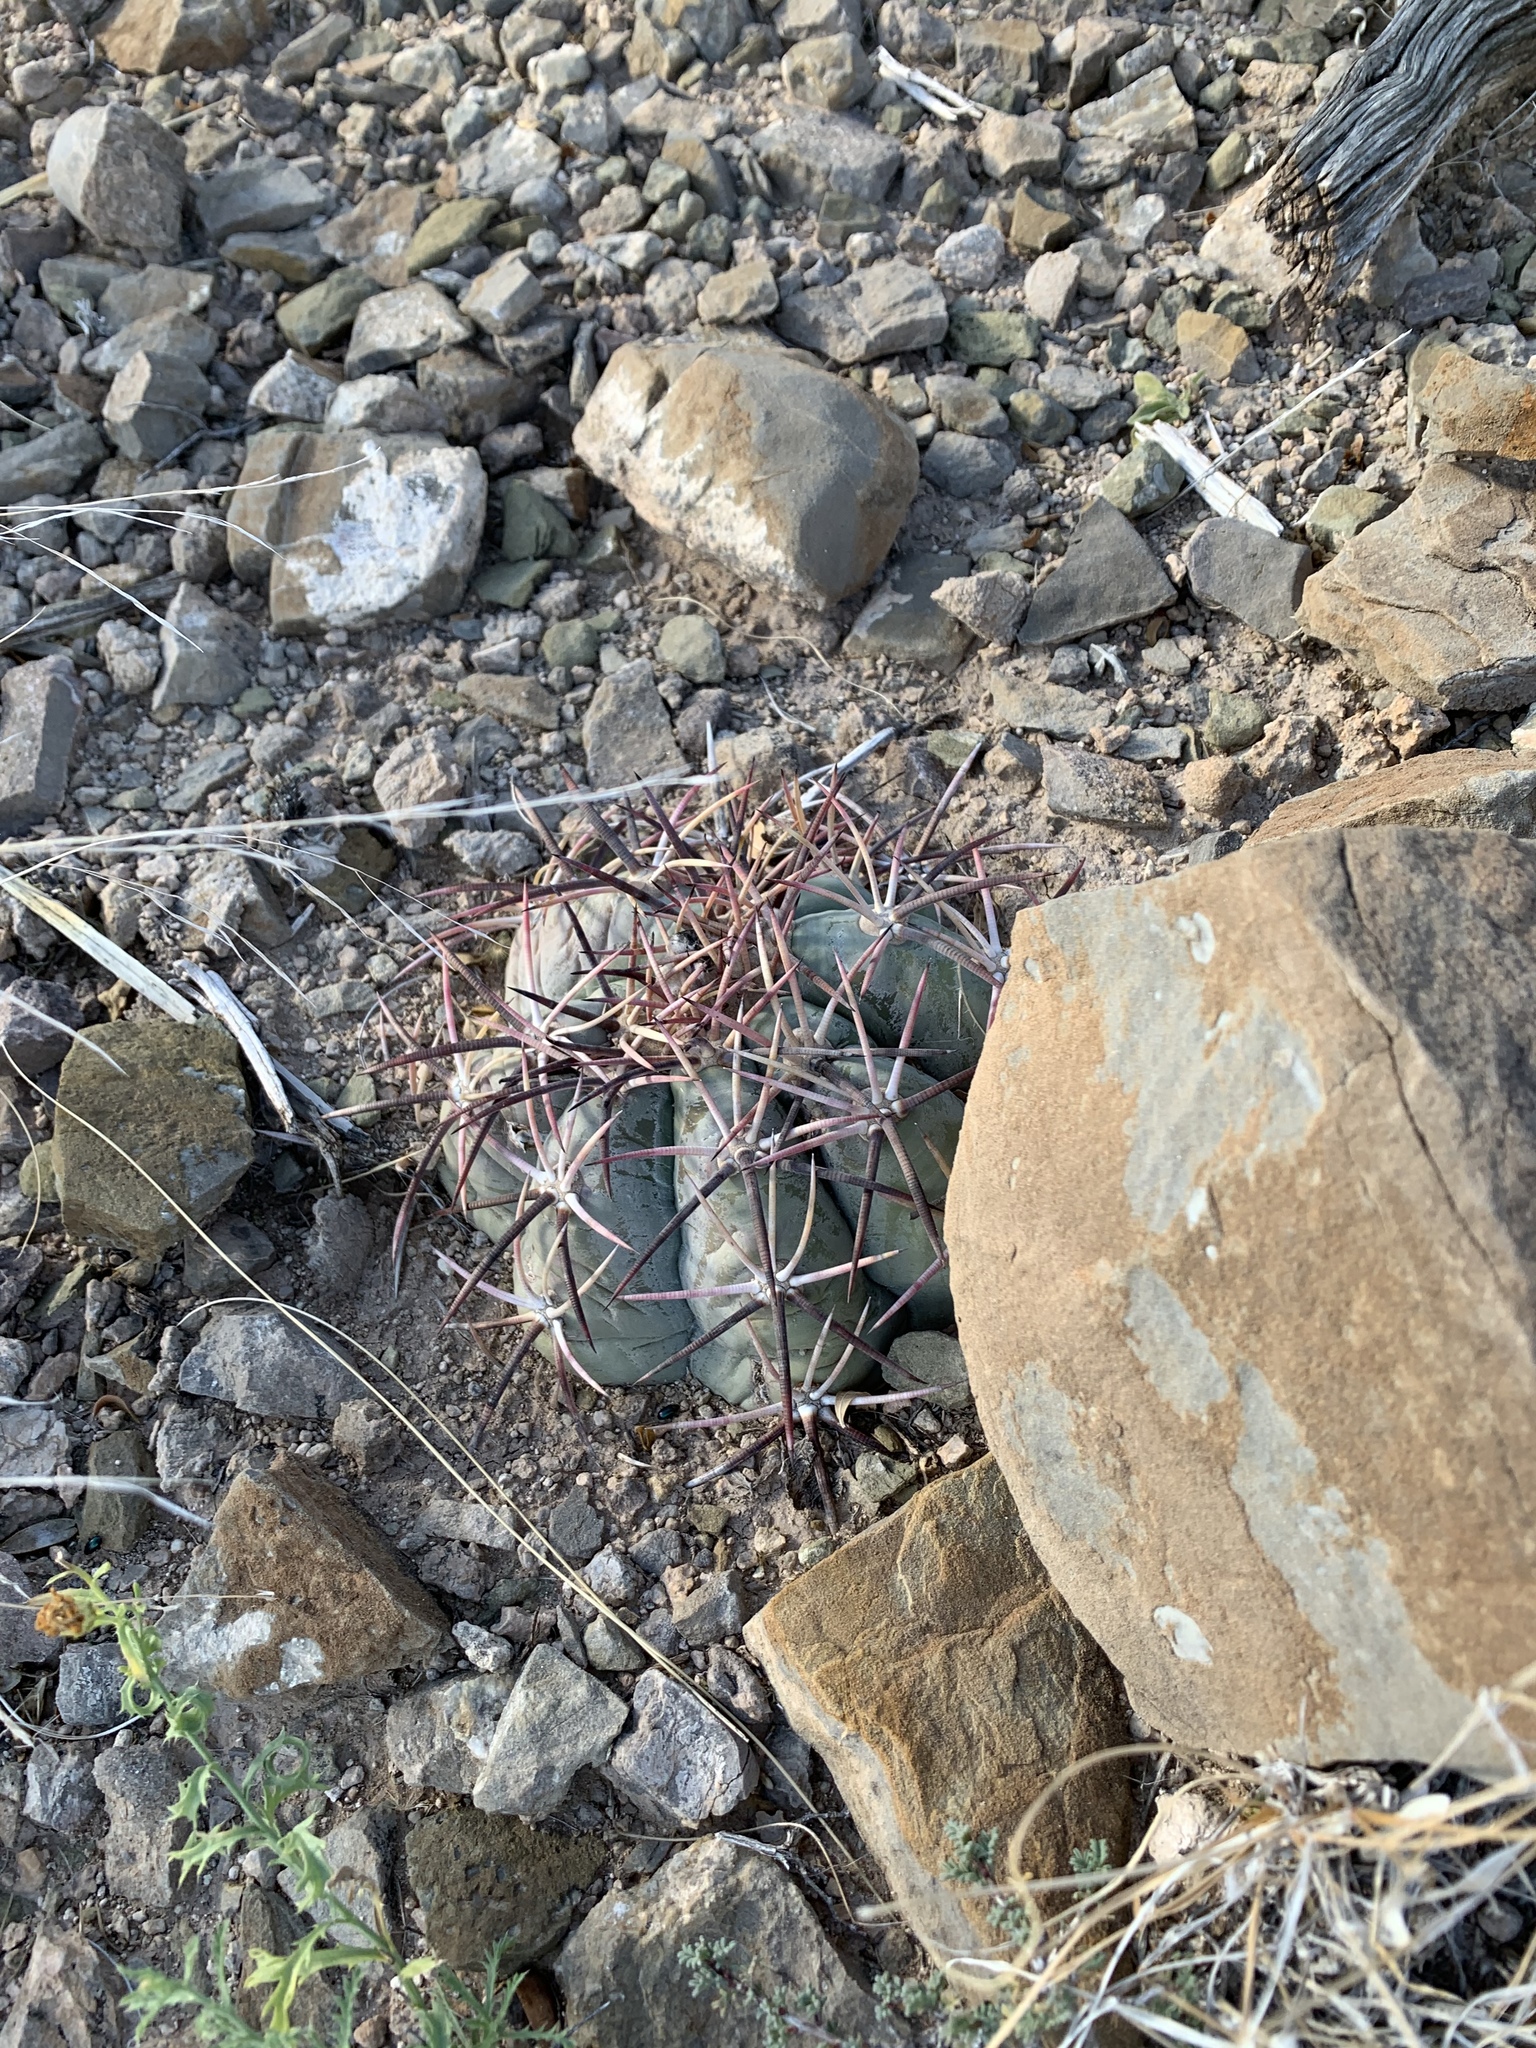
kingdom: Plantae
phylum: Tracheophyta
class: Magnoliopsida
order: Caryophyllales
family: Cactaceae
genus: Echinocactus
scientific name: Echinocactus horizonthalonius
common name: Devilshead
